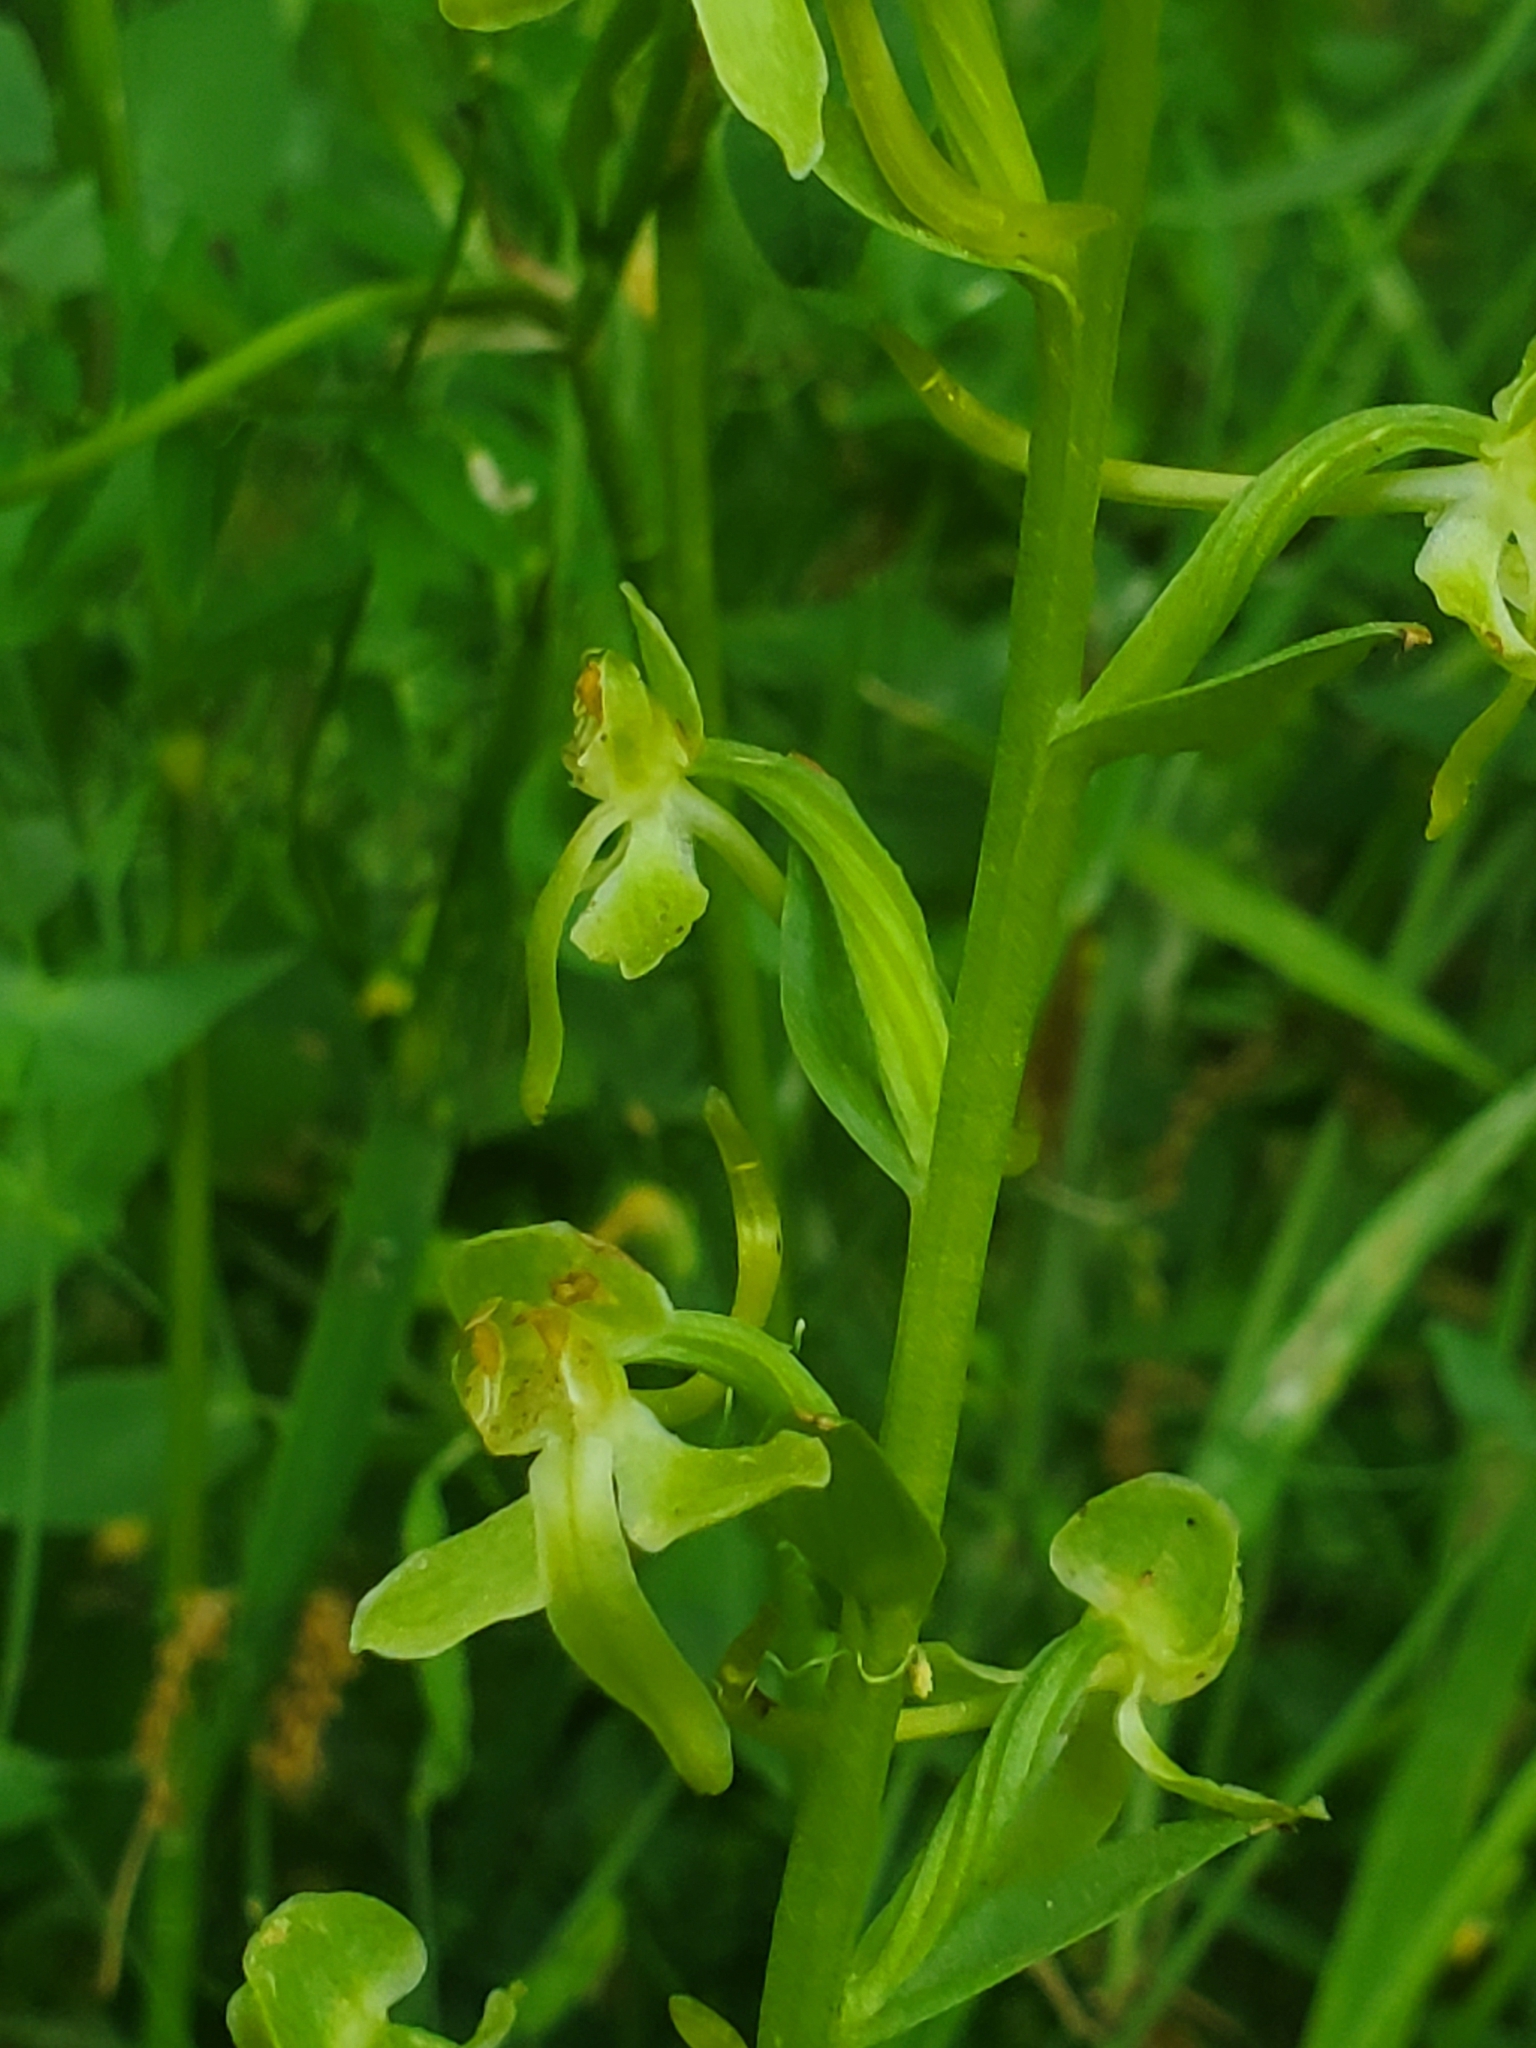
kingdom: Plantae
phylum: Tracheophyta
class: Liliopsida
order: Asparagales
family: Orchidaceae
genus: Platanthera
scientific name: Platanthera holmboei
